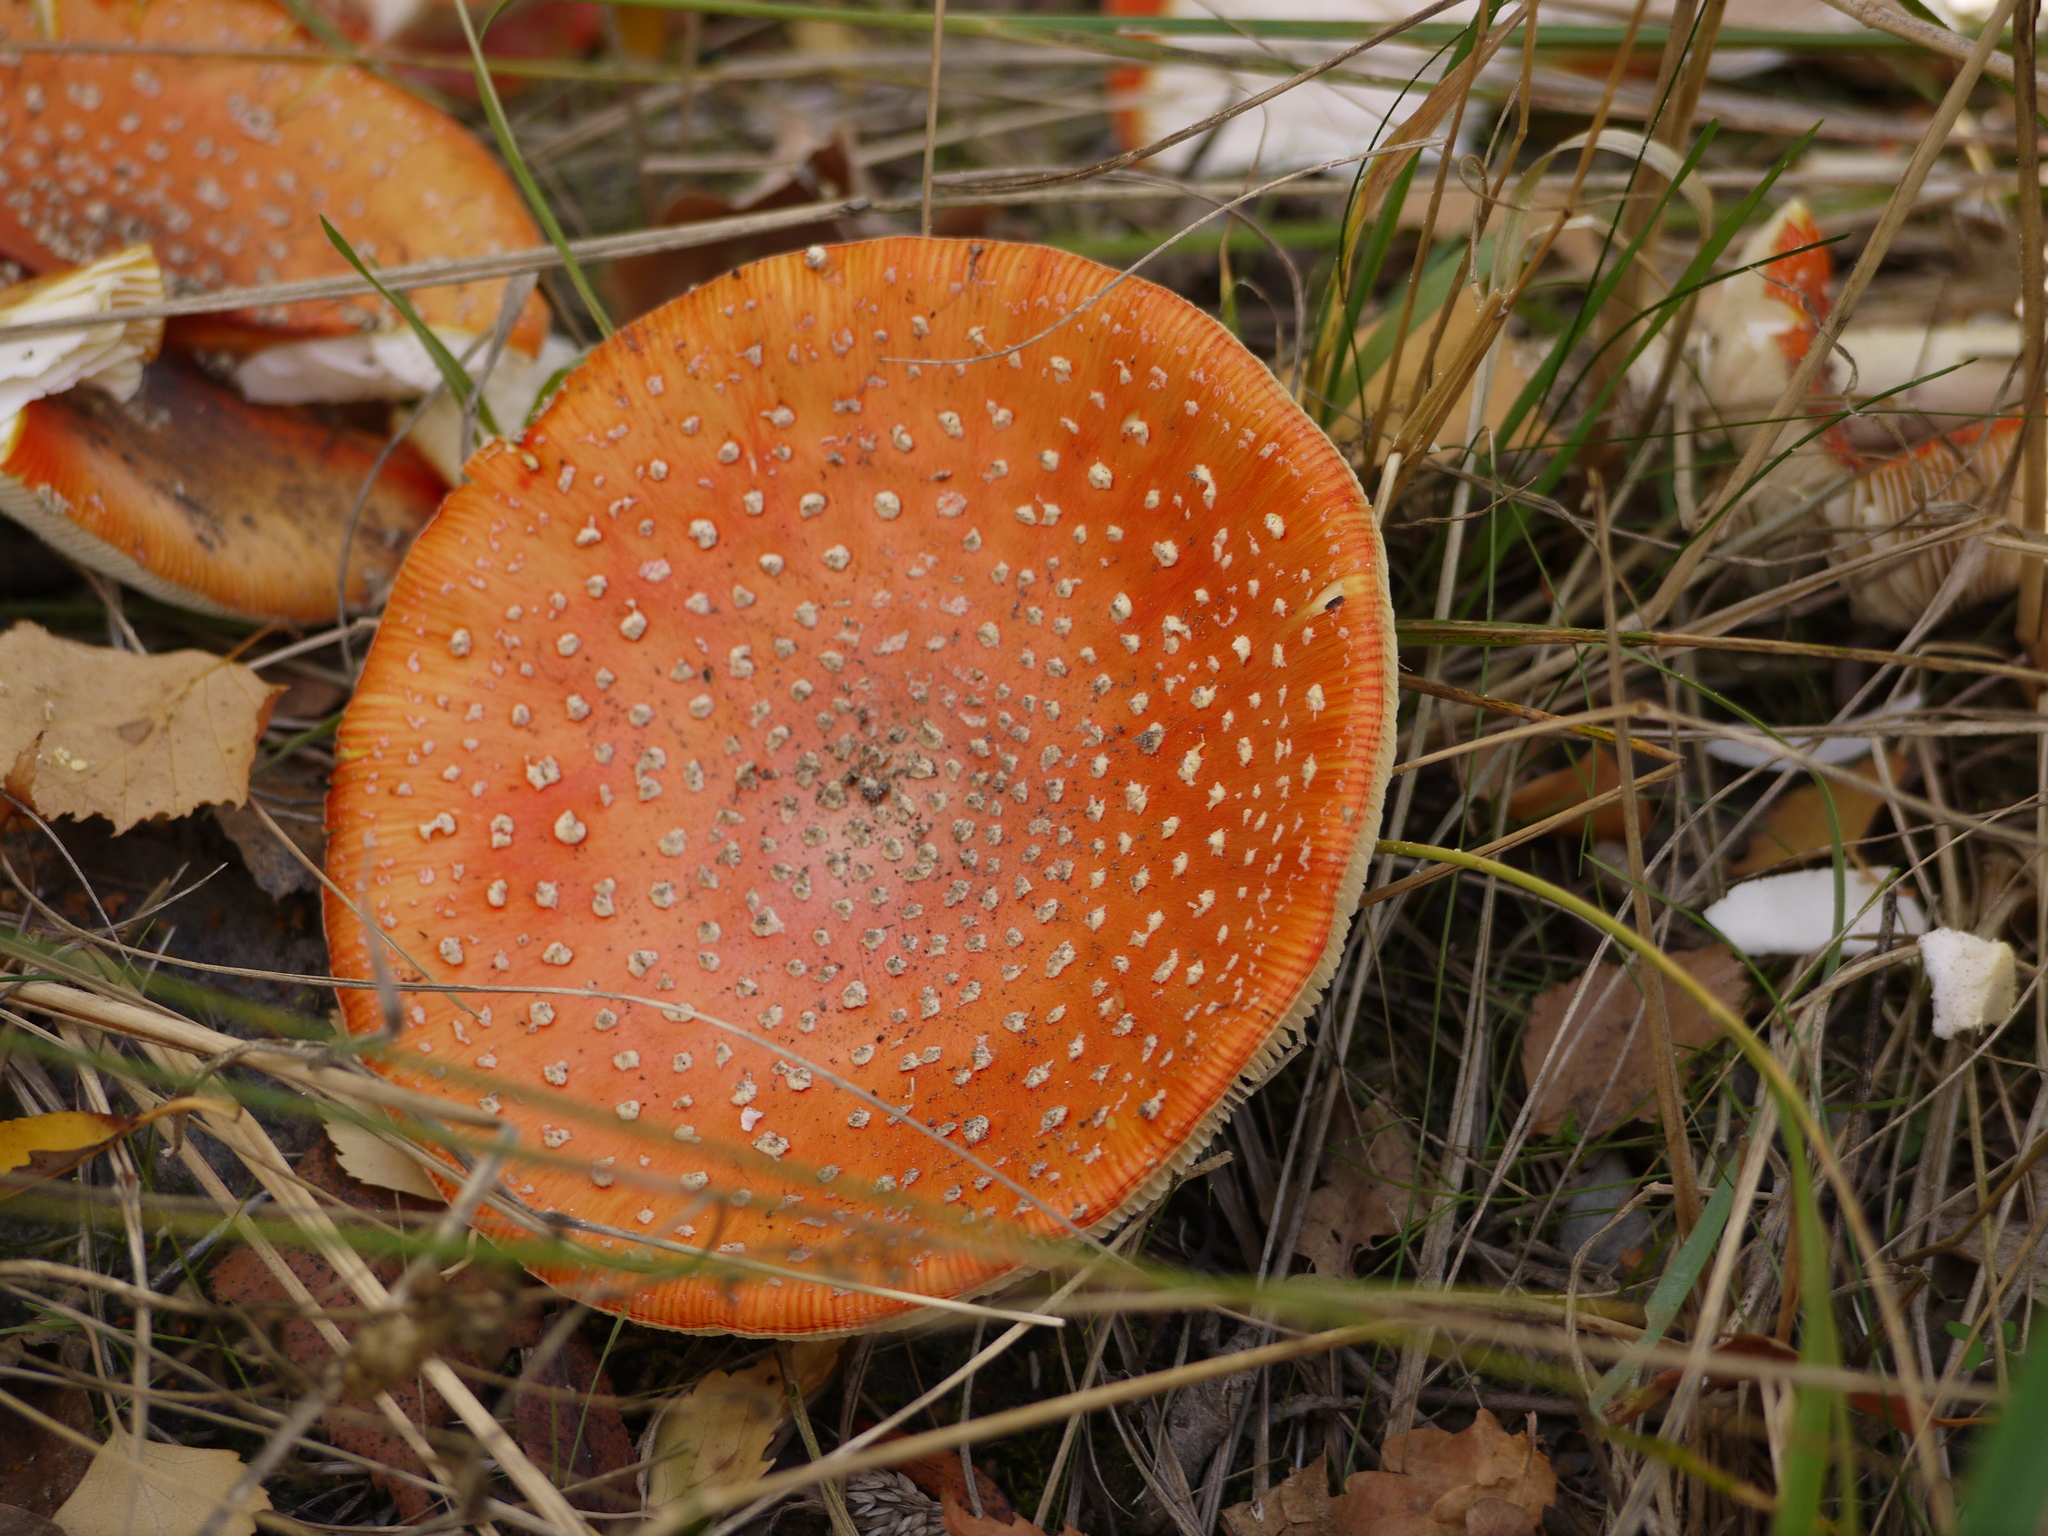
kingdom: Fungi
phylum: Basidiomycota
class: Agaricomycetes
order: Agaricales
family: Amanitaceae
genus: Amanita
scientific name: Amanita muscaria
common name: Fly agaric
